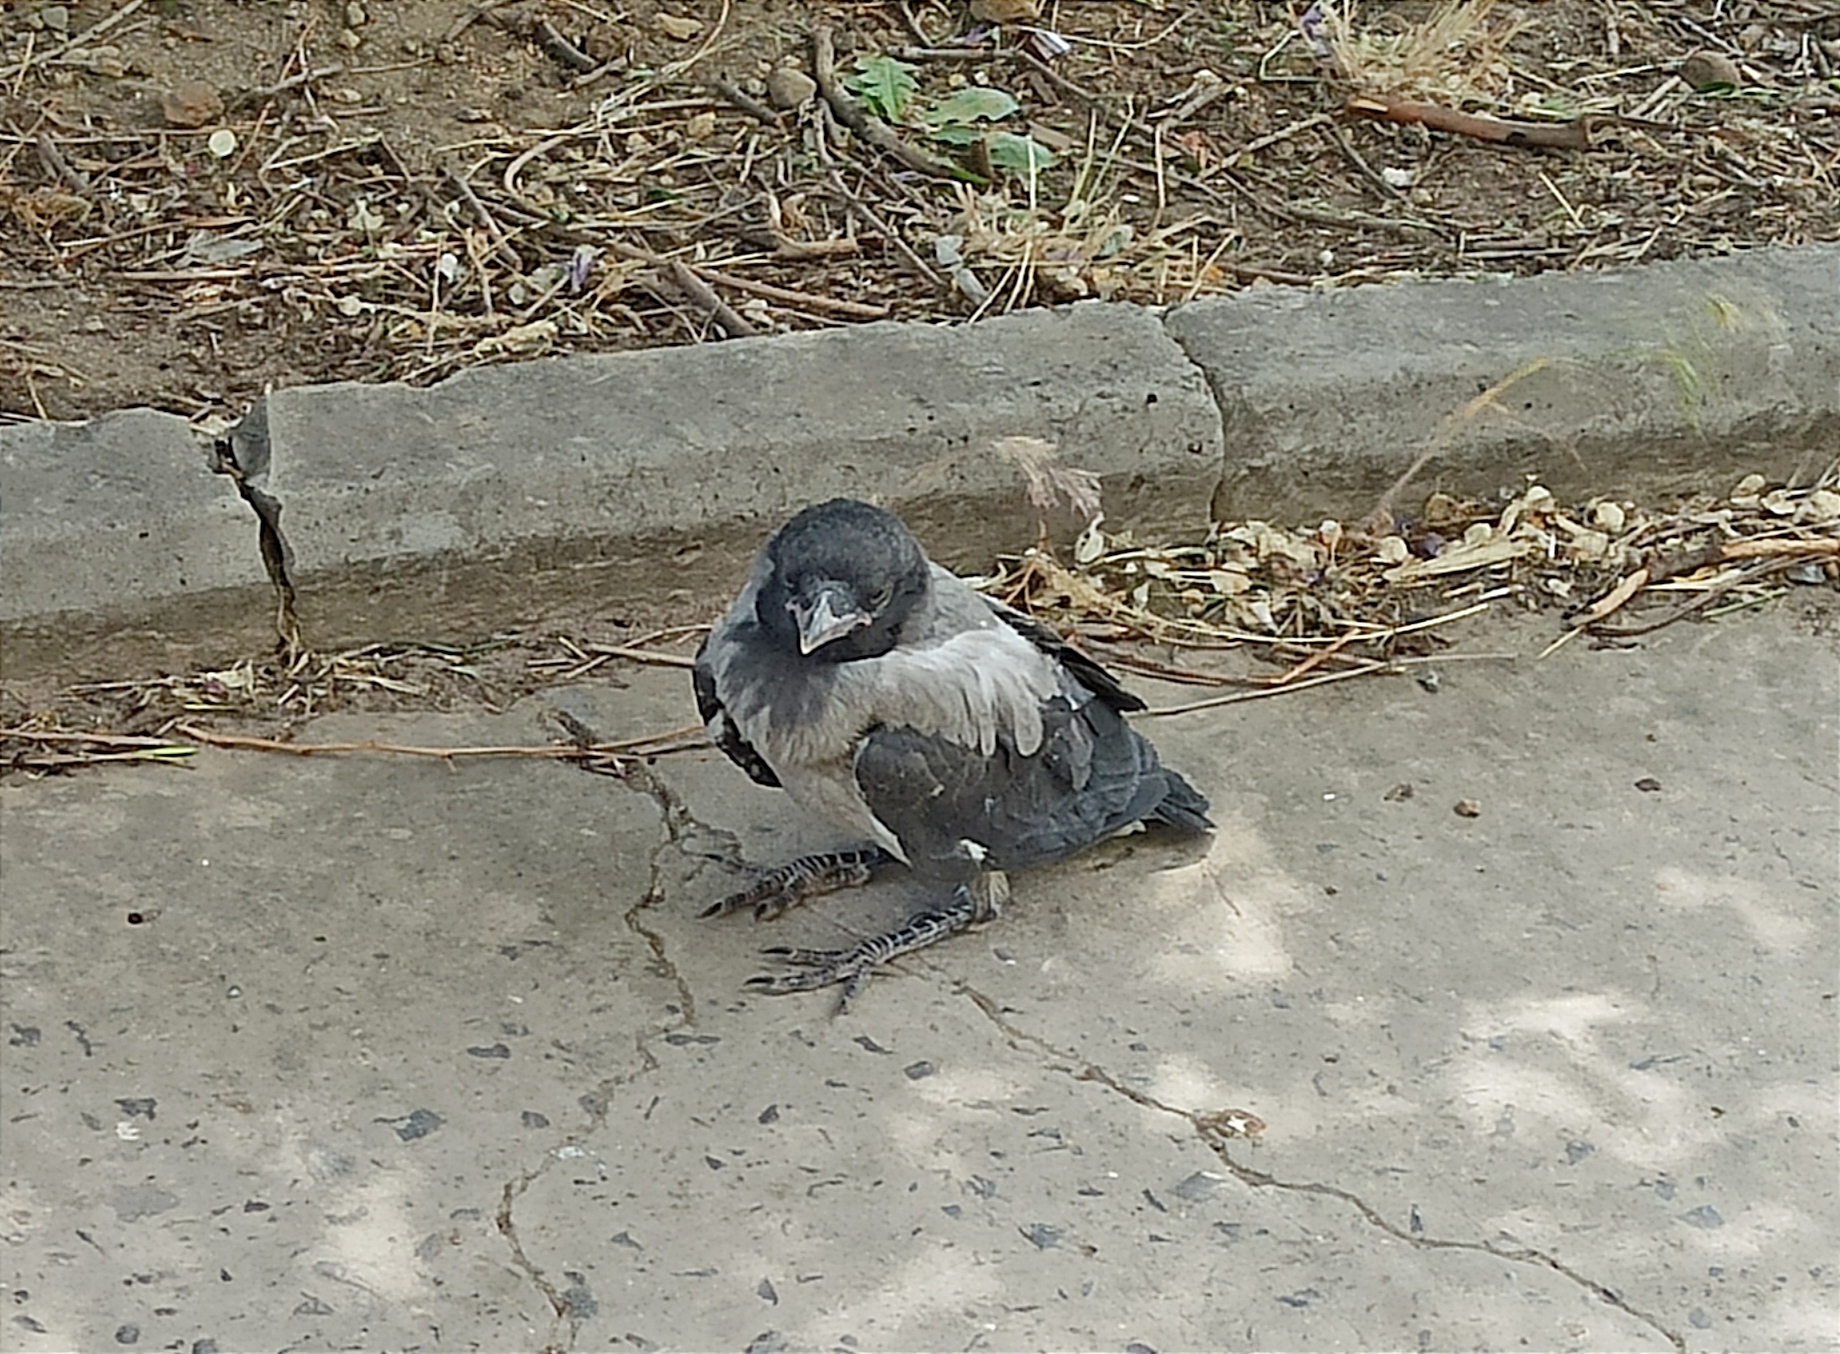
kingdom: Animalia
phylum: Chordata
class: Aves
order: Passeriformes
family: Corvidae
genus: Corvus
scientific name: Corvus cornix
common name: Hooded crow
